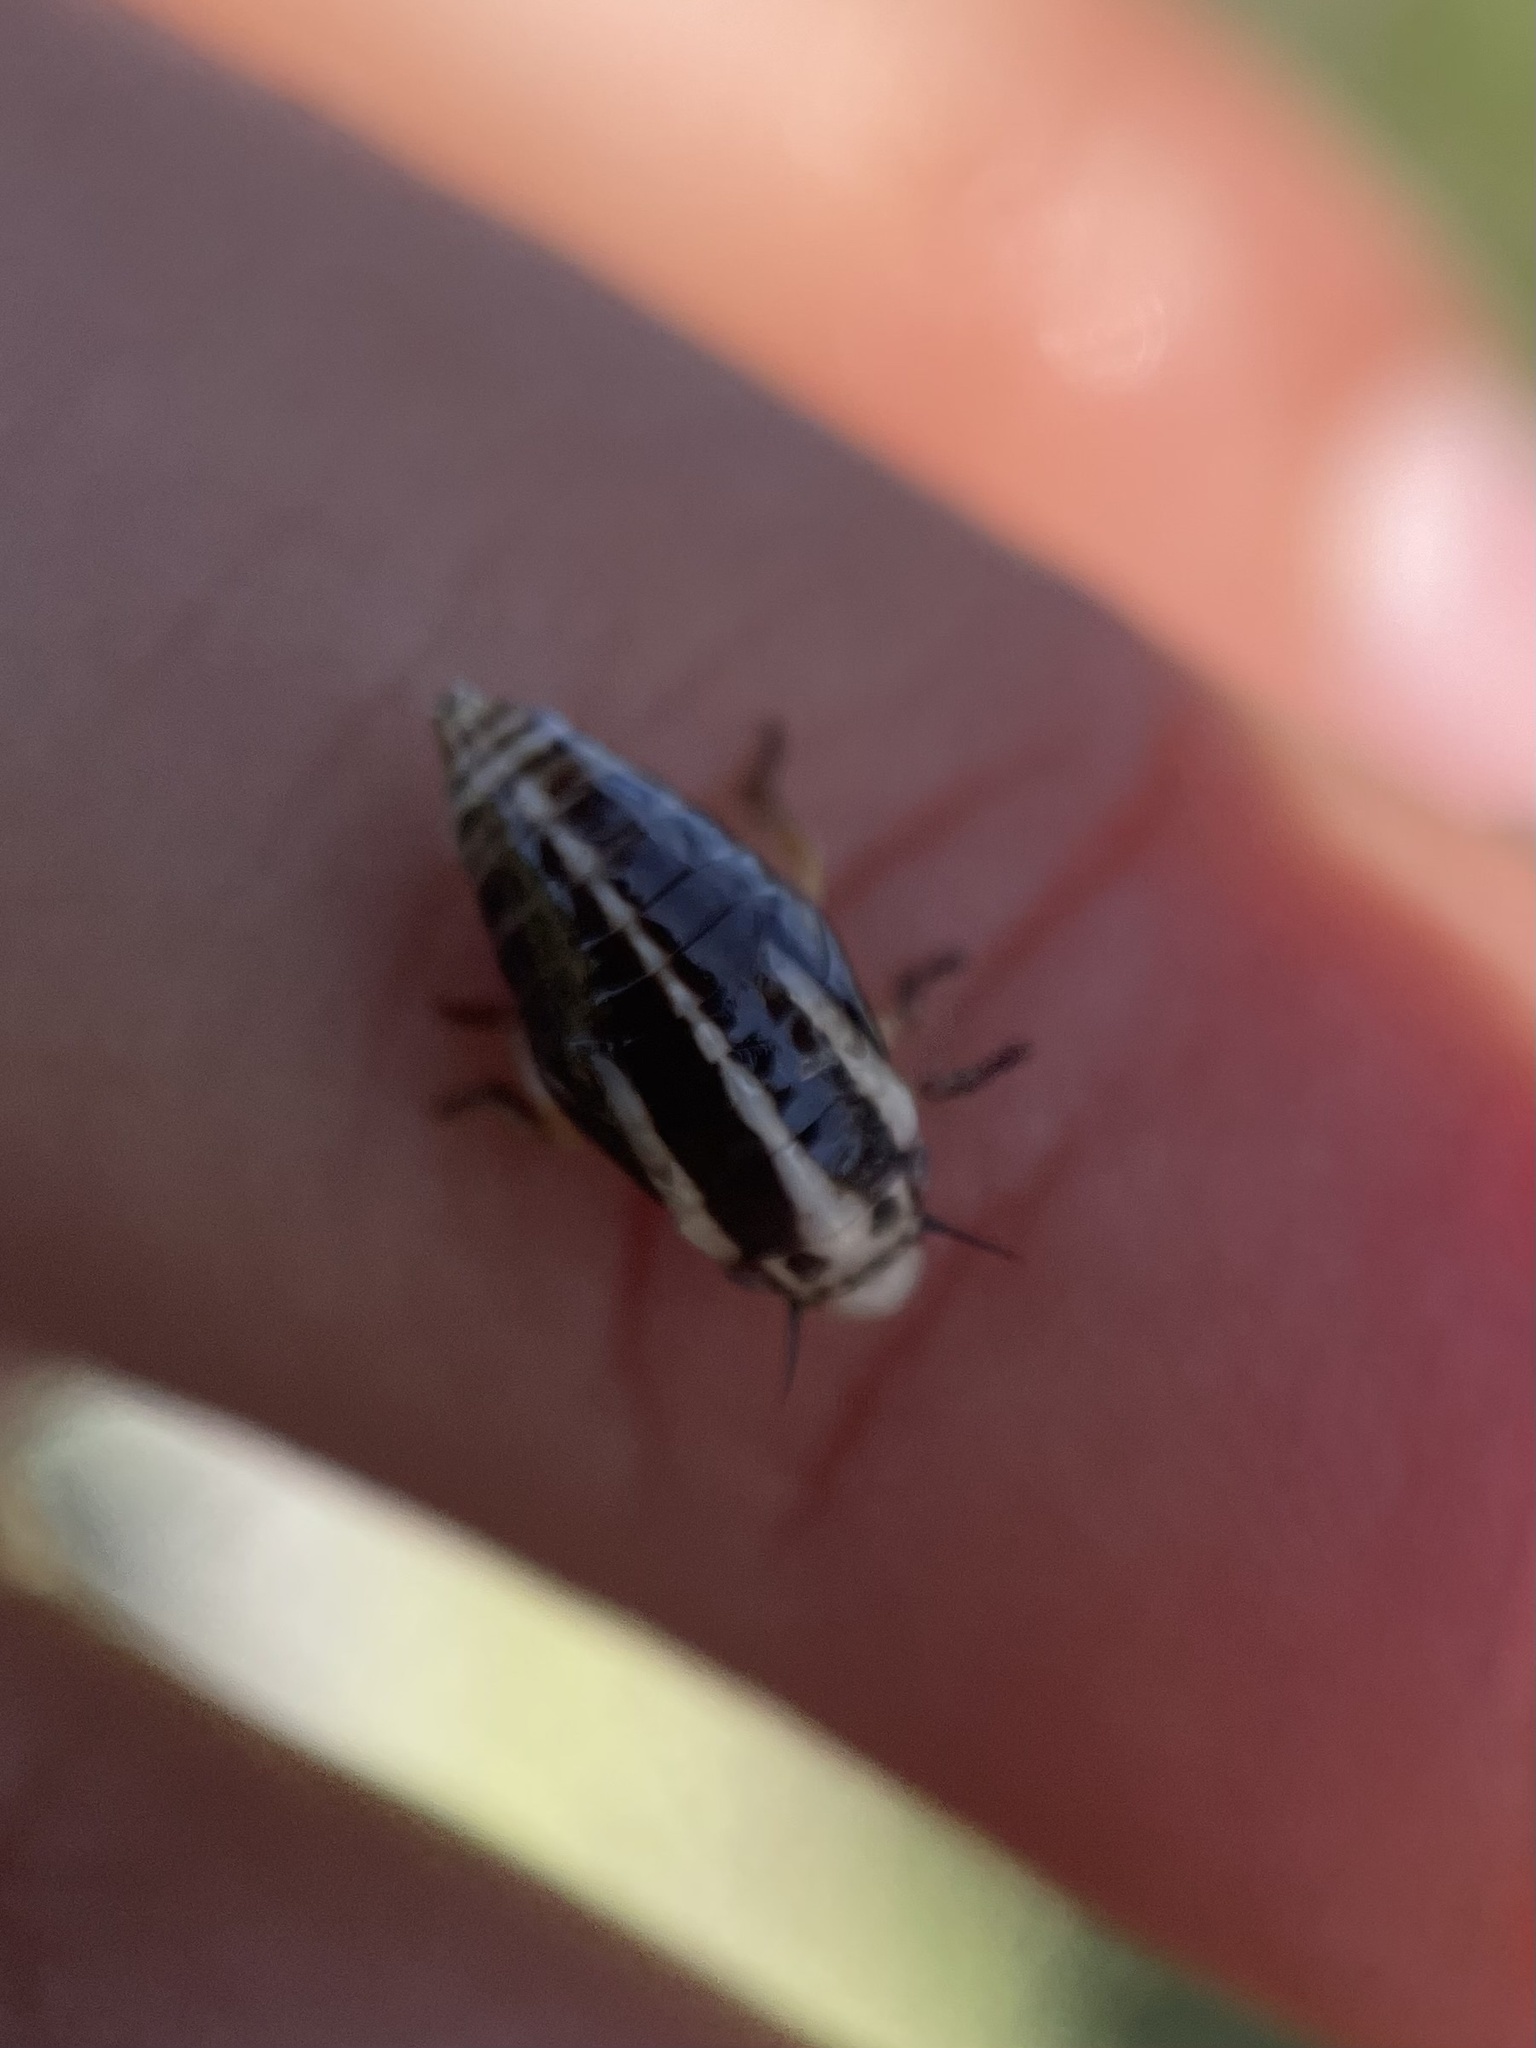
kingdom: Animalia
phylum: Arthropoda
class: Insecta
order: Hemiptera
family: Aphrophoridae
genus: Lepyronia
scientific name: Lepyronia gibbosa
